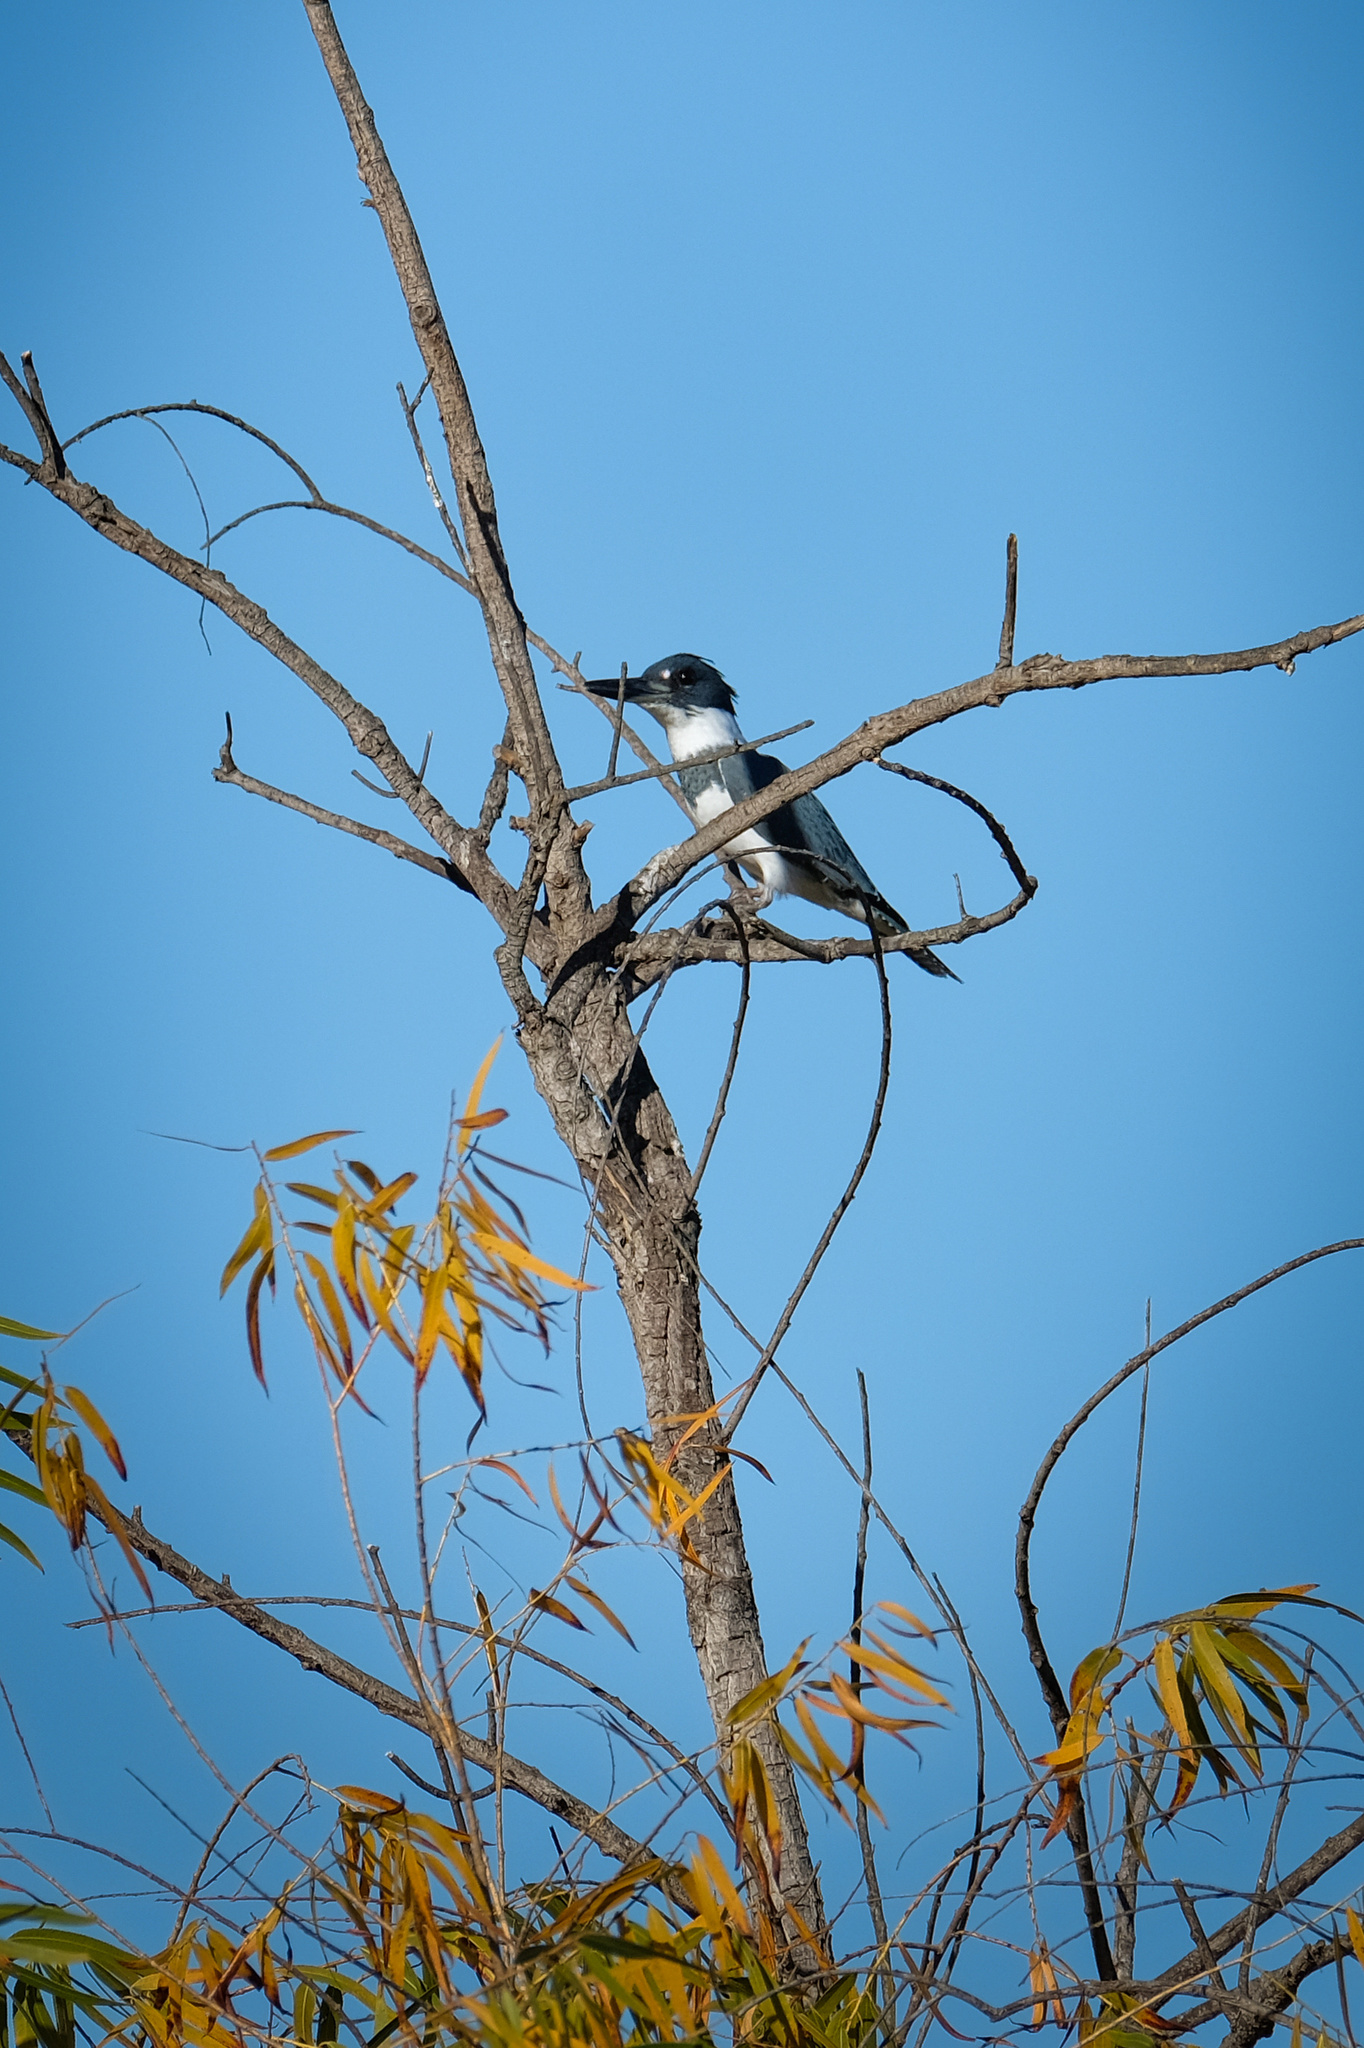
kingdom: Animalia
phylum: Chordata
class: Aves
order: Coraciiformes
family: Alcedinidae
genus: Megaceryle
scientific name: Megaceryle alcyon
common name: Belted kingfisher
